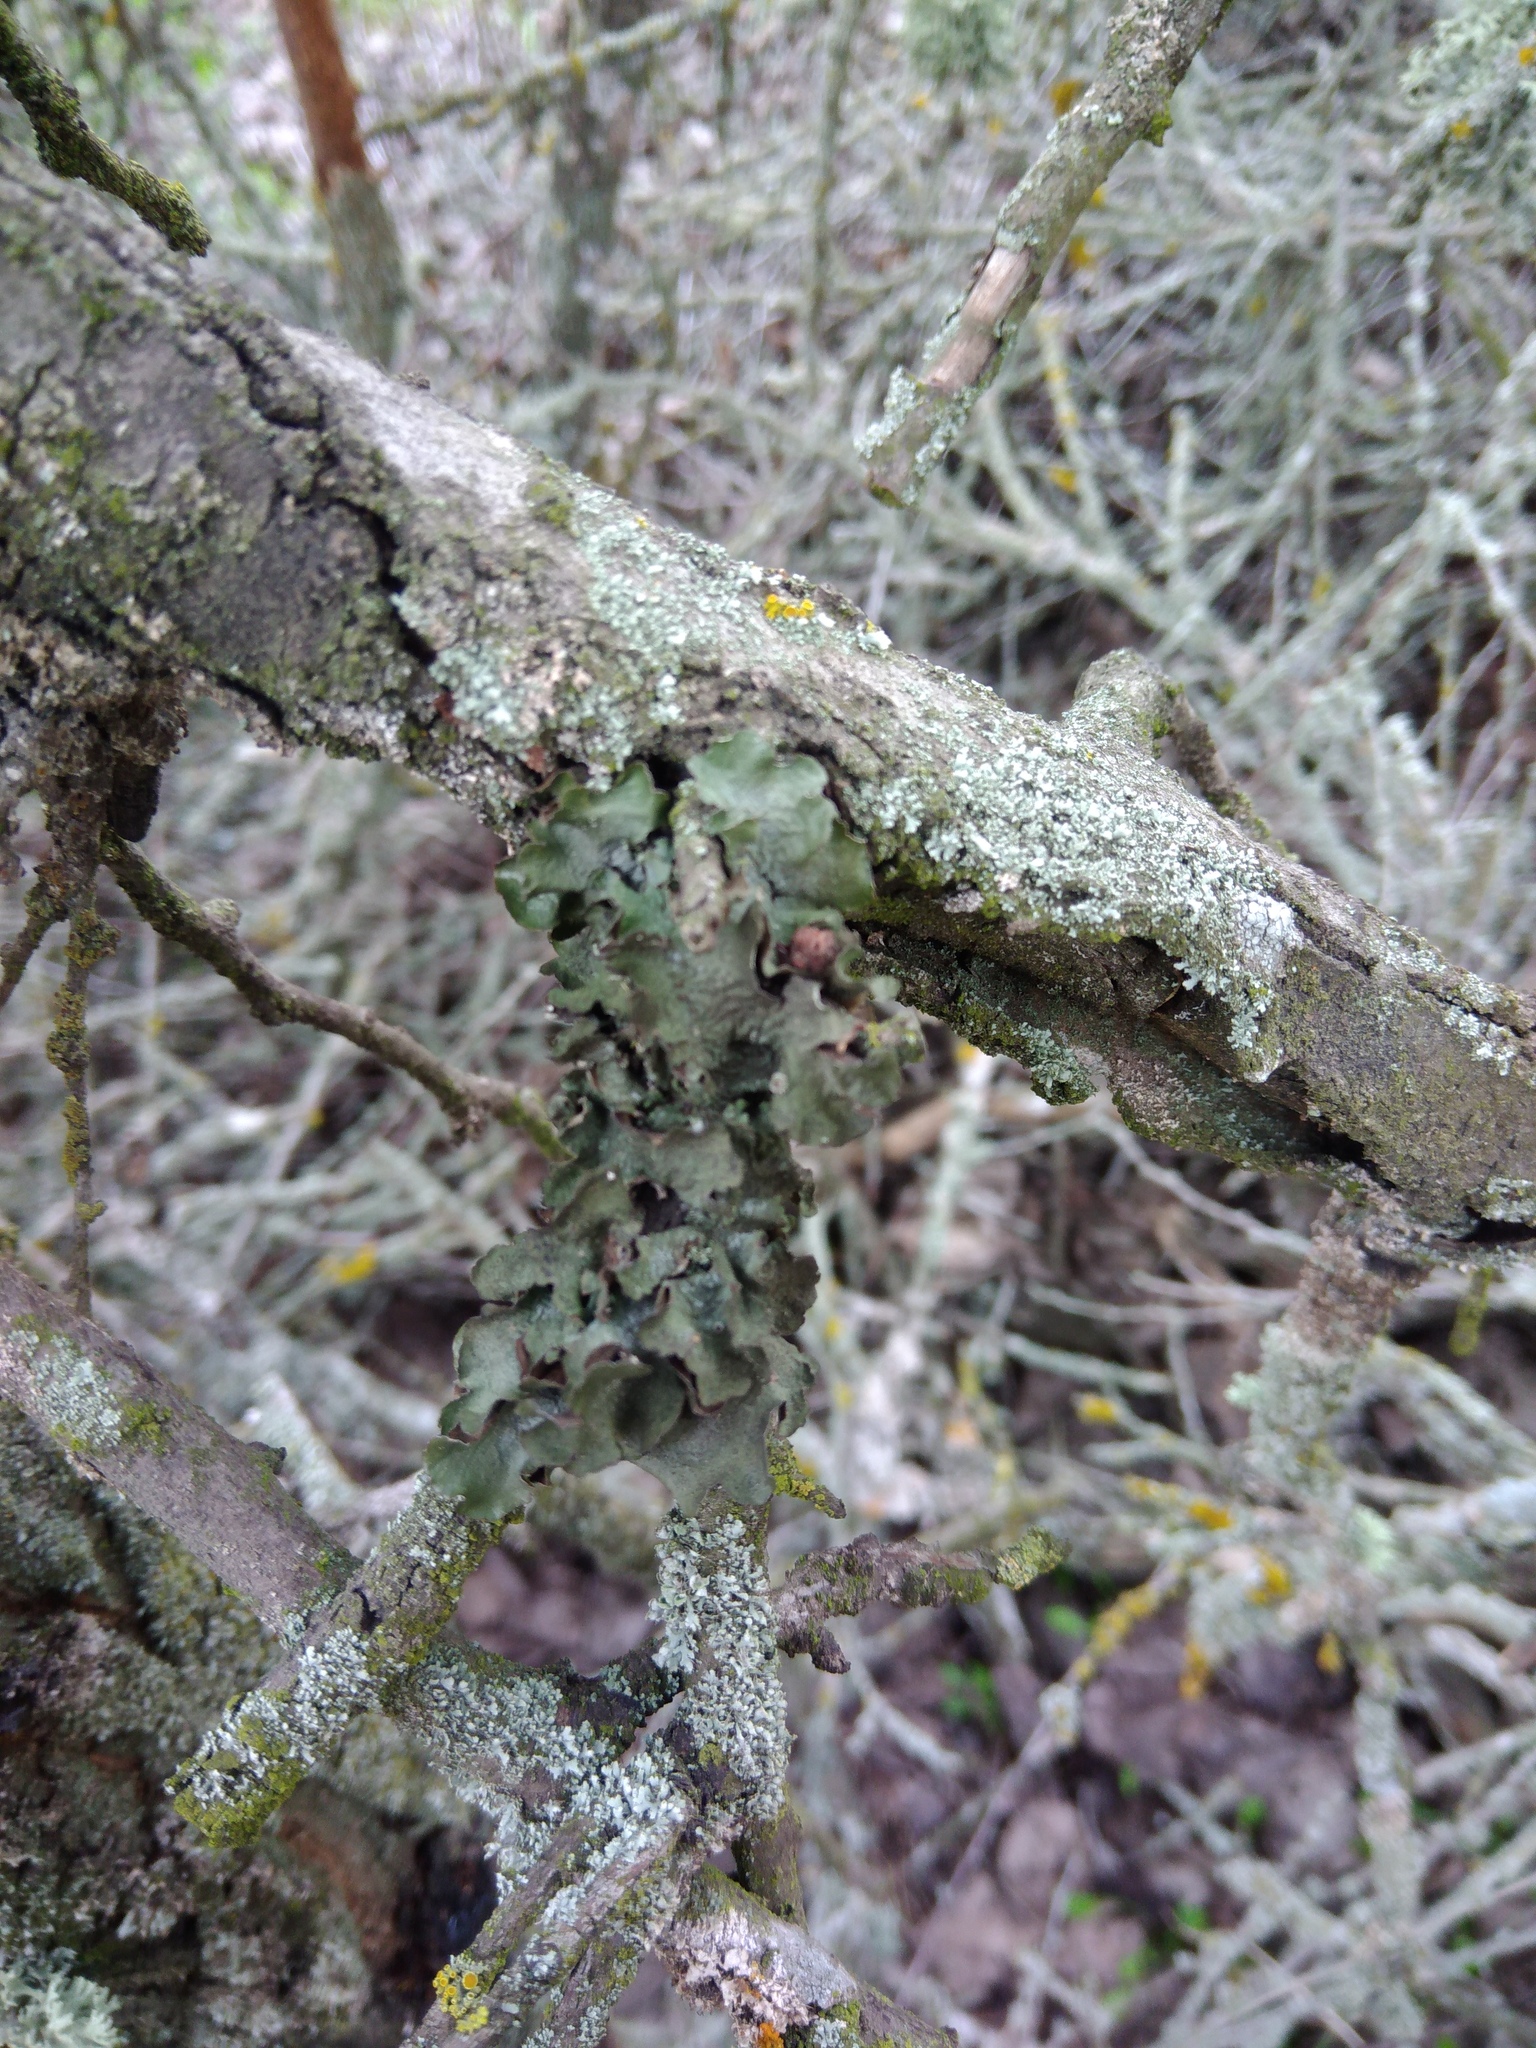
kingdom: Fungi
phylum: Ascomycota
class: Lecanoromycetes
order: Lecanorales
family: Parmeliaceae
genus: Pleurosticta
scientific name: Pleurosticta acetabulum
